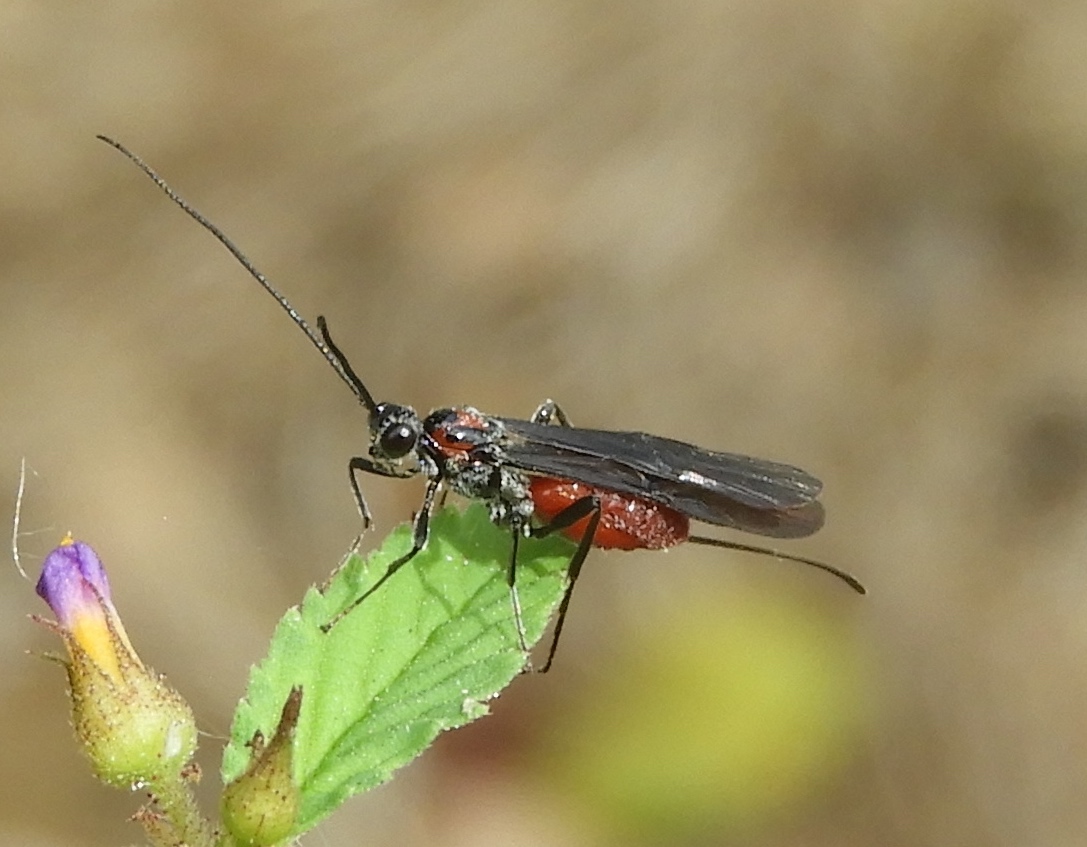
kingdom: Animalia
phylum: Arthropoda
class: Insecta
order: Hymenoptera
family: Braconidae
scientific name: Braconidae
